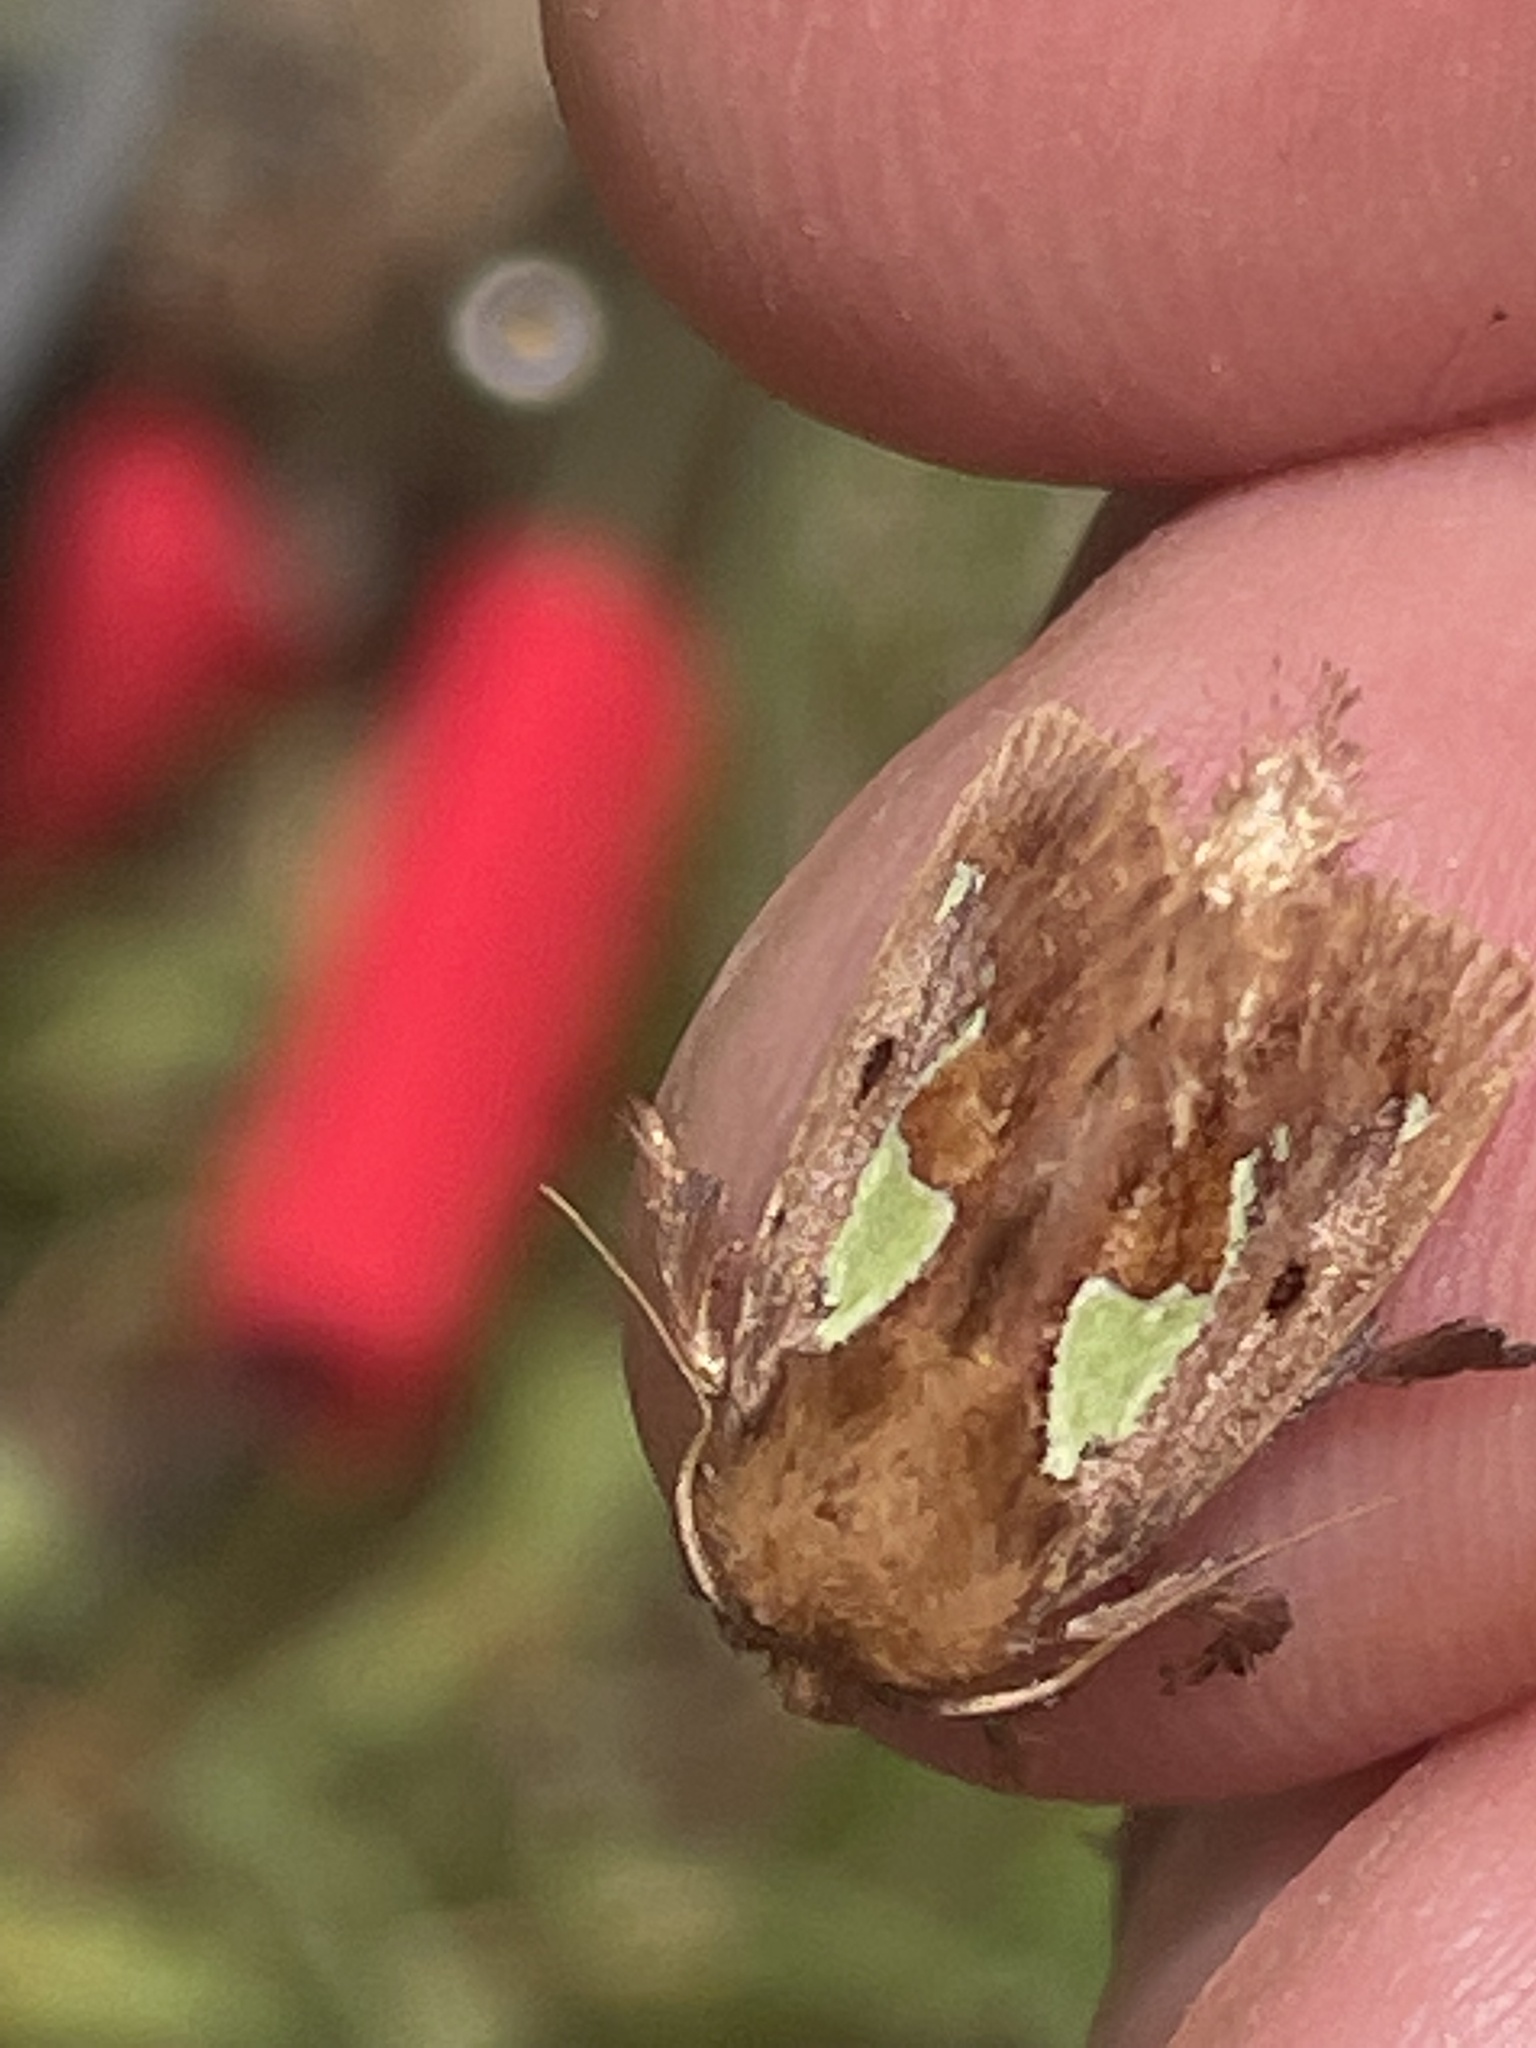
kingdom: Animalia
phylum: Arthropoda
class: Insecta
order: Lepidoptera
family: Limacodidae
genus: Euclea
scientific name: Euclea delphinii
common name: Spiny oak-slug moth
